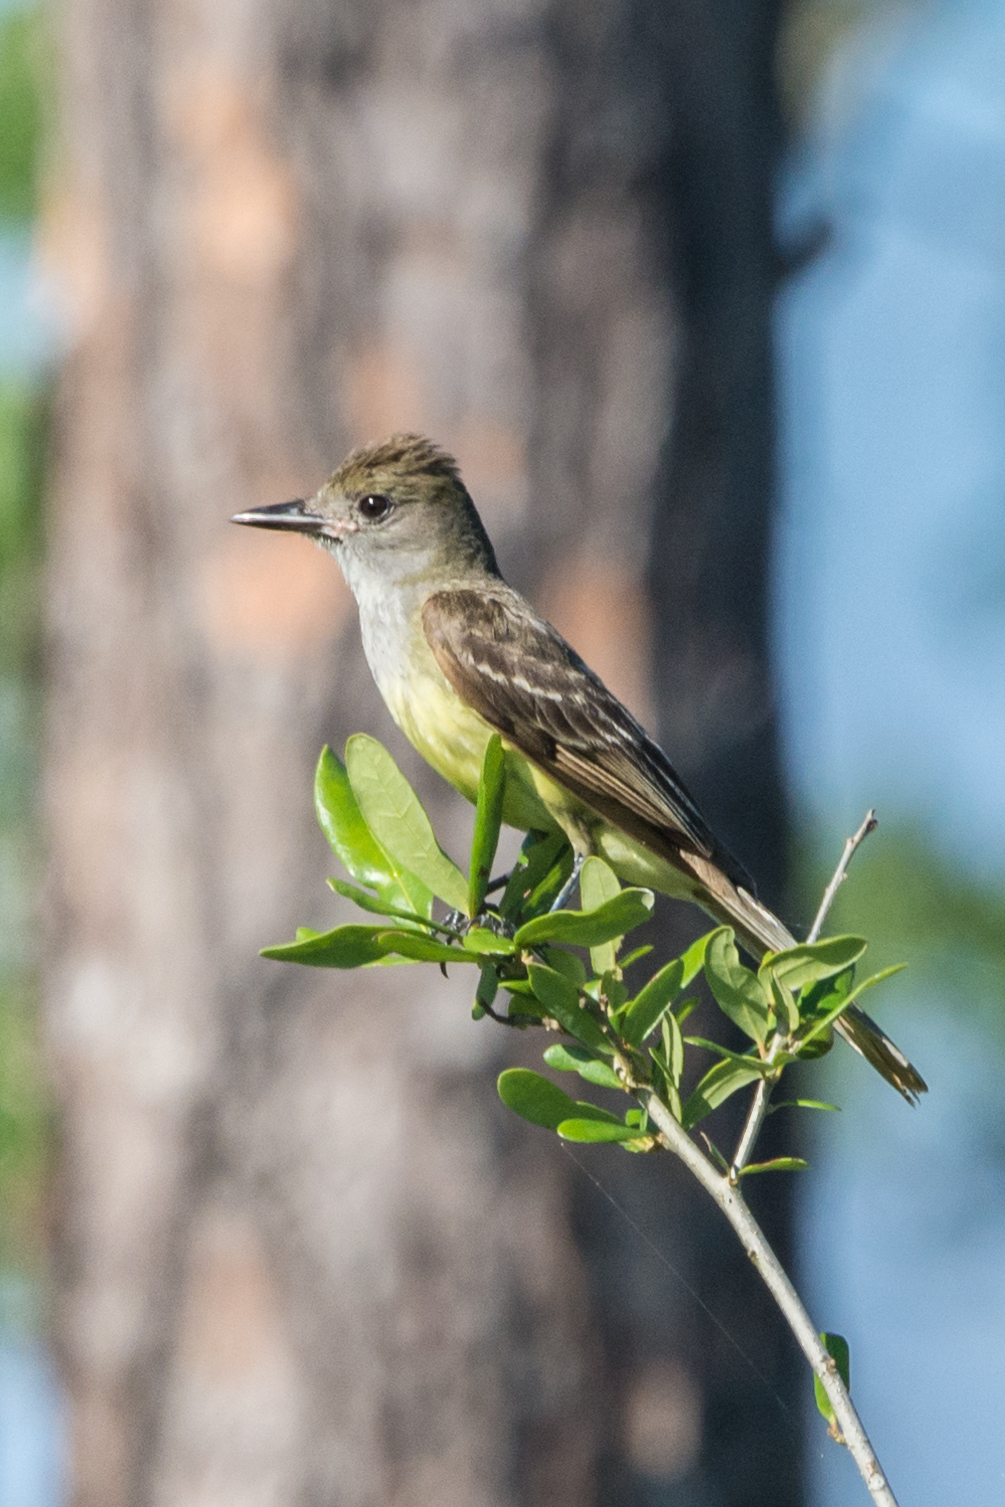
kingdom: Animalia
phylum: Chordata
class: Aves
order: Passeriformes
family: Tyrannidae
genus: Myiarchus
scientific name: Myiarchus crinitus
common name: Great crested flycatcher
